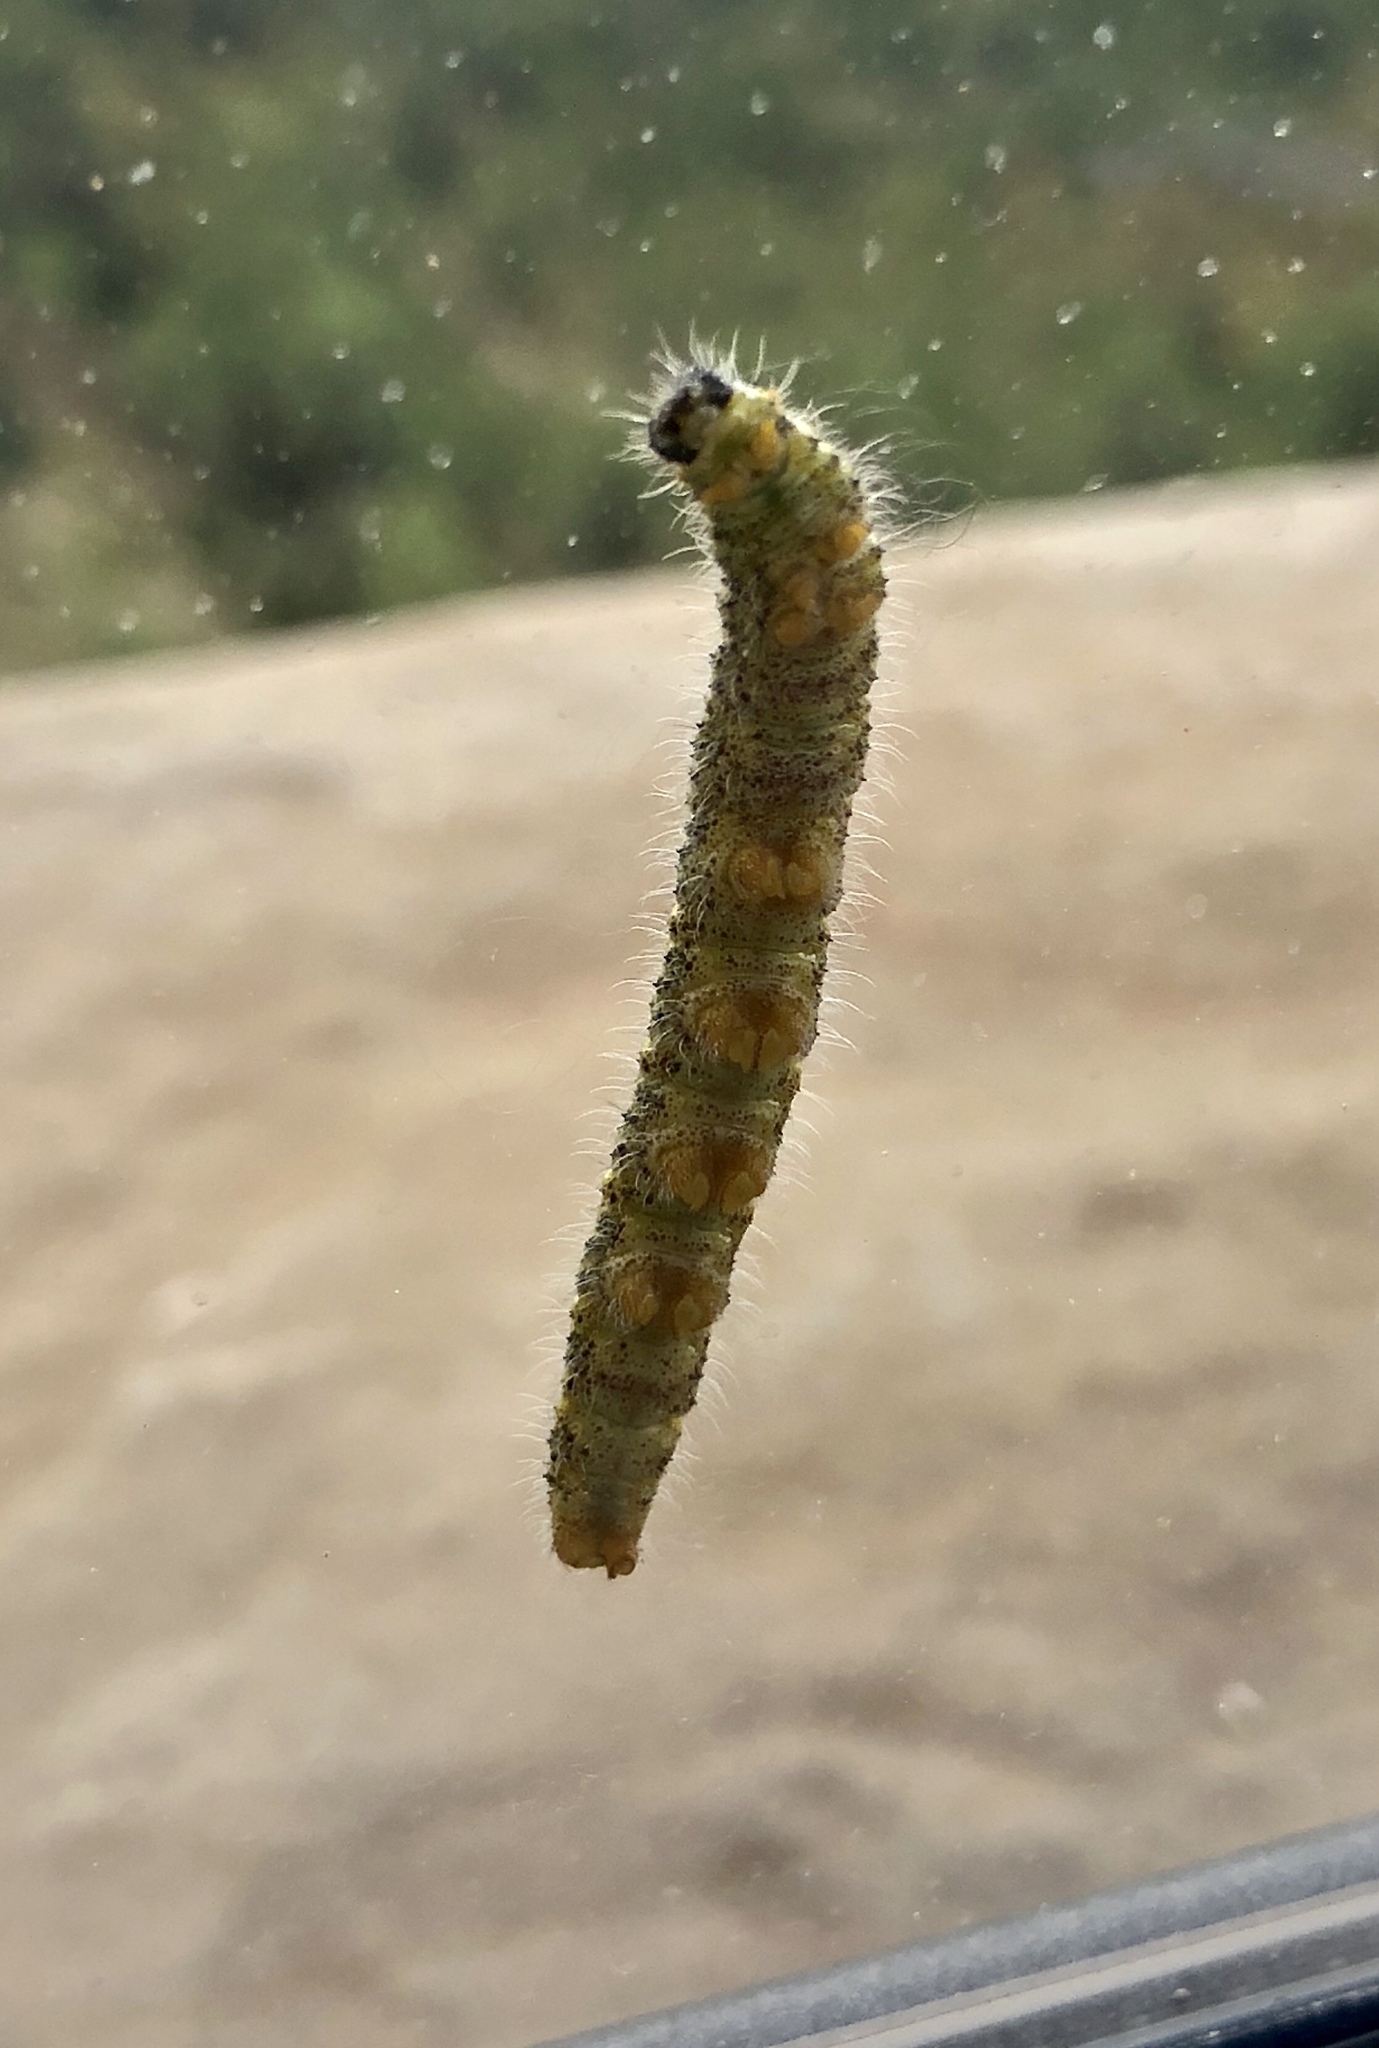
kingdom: Animalia
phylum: Arthropoda
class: Insecta
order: Lepidoptera
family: Pieridae
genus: Pieris
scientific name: Pieris brassicae
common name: Large white
